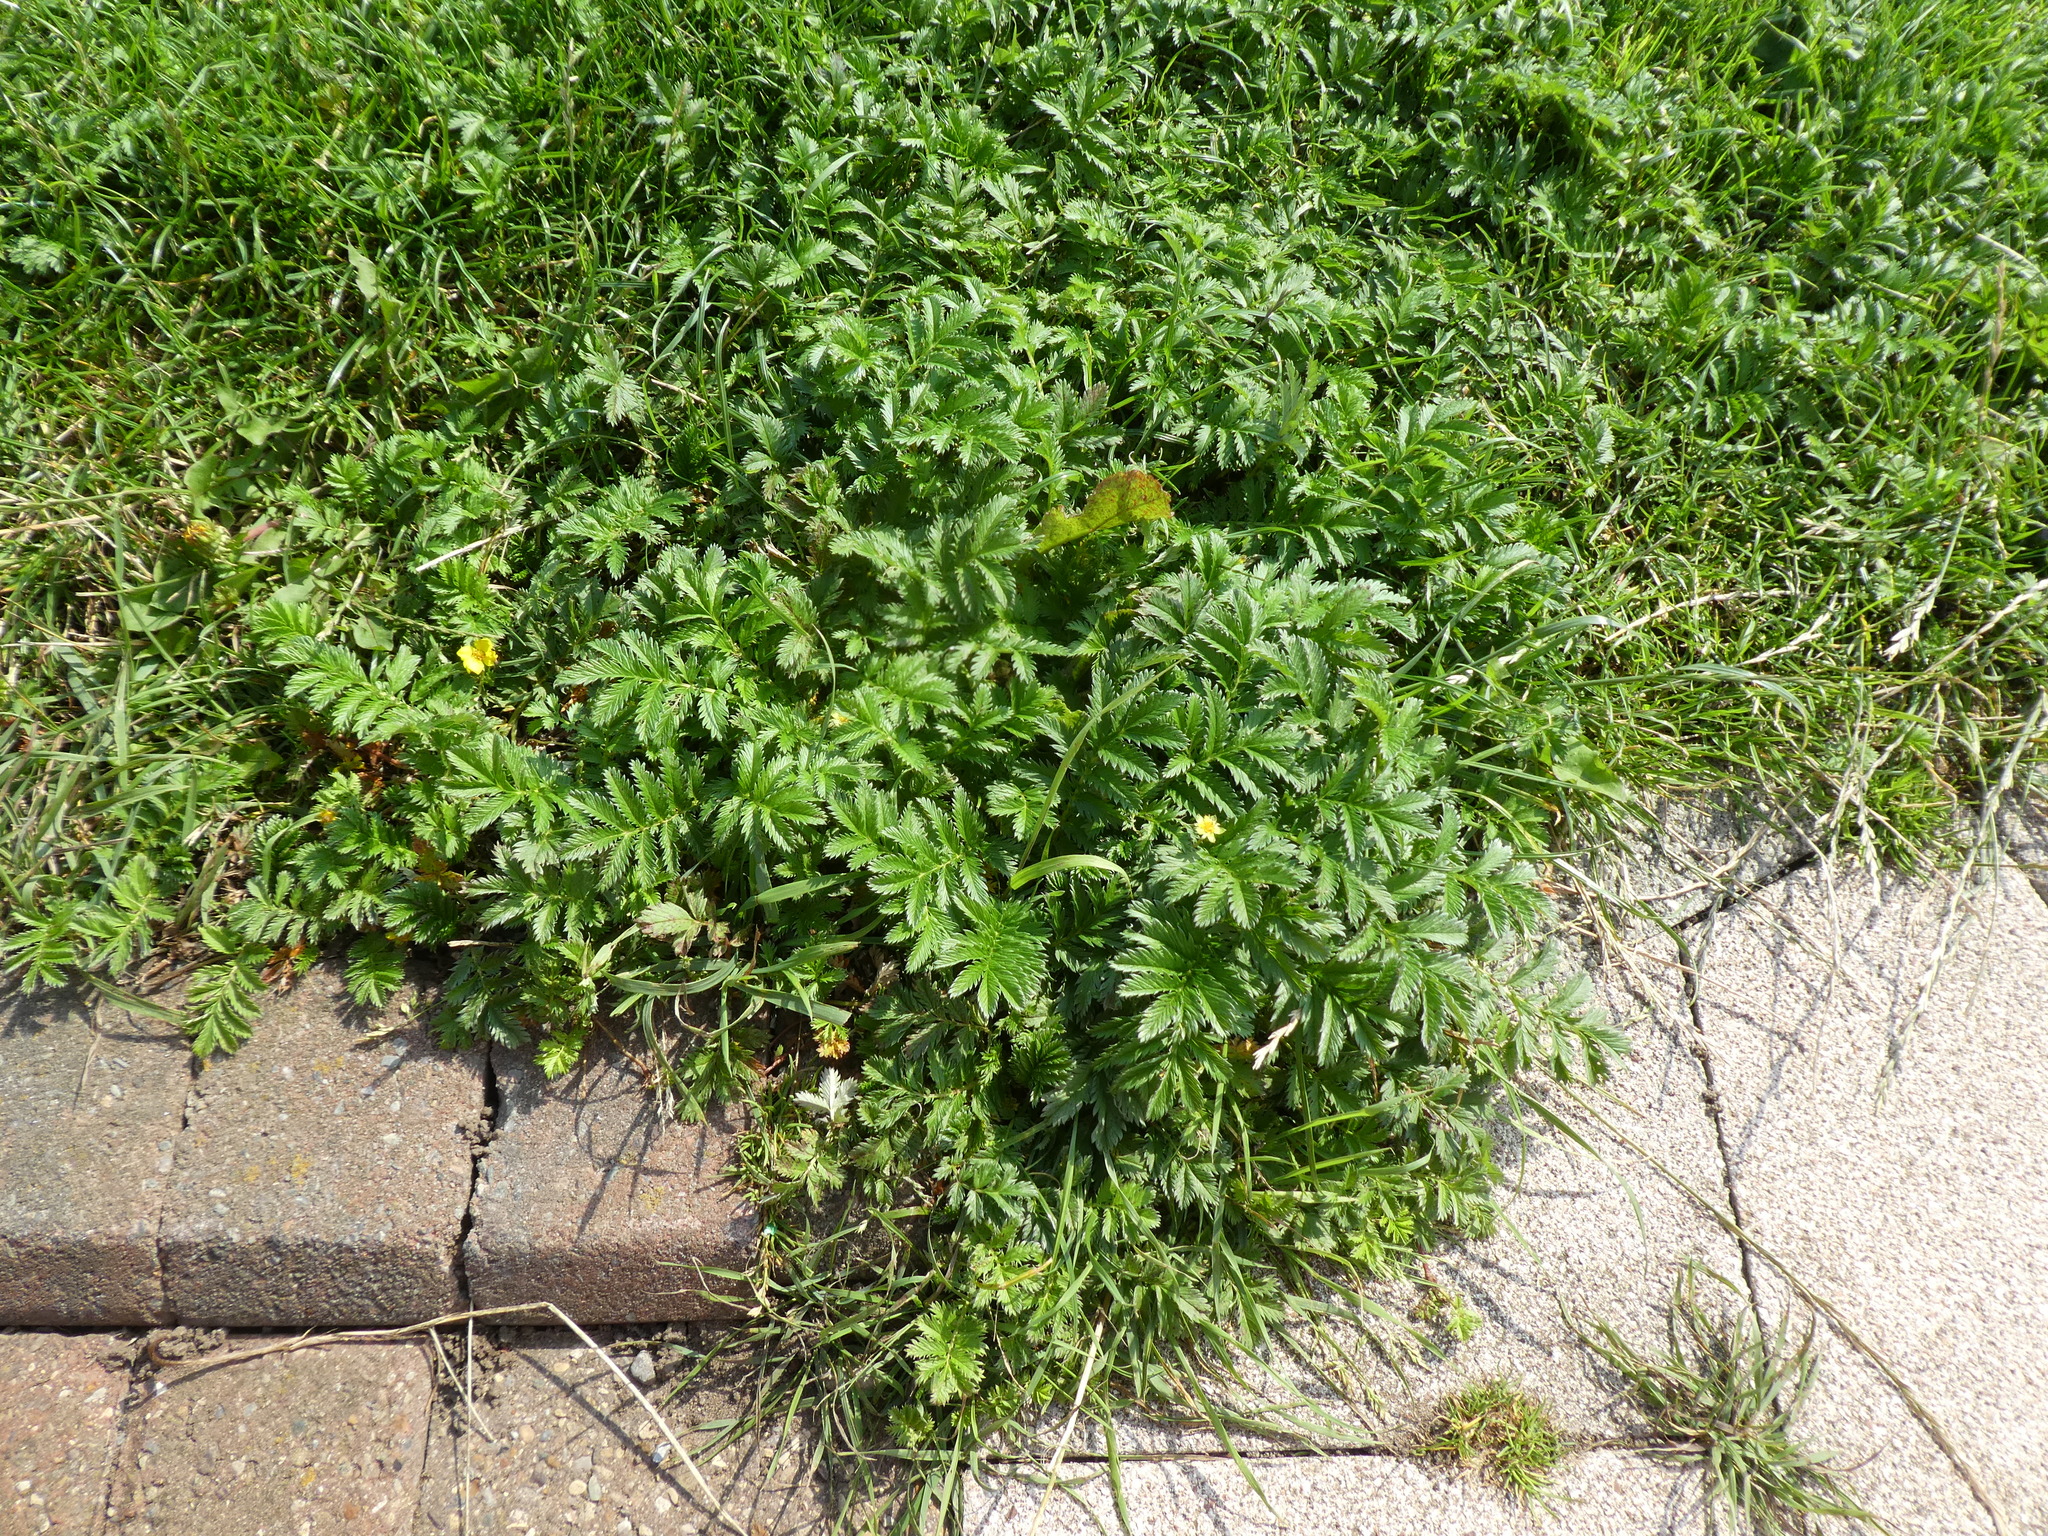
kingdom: Plantae
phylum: Tracheophyta
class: Magnoliopsida
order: Rosales
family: Rosaceae
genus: Argentina
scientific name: Argentina anserina
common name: Common silverweed
